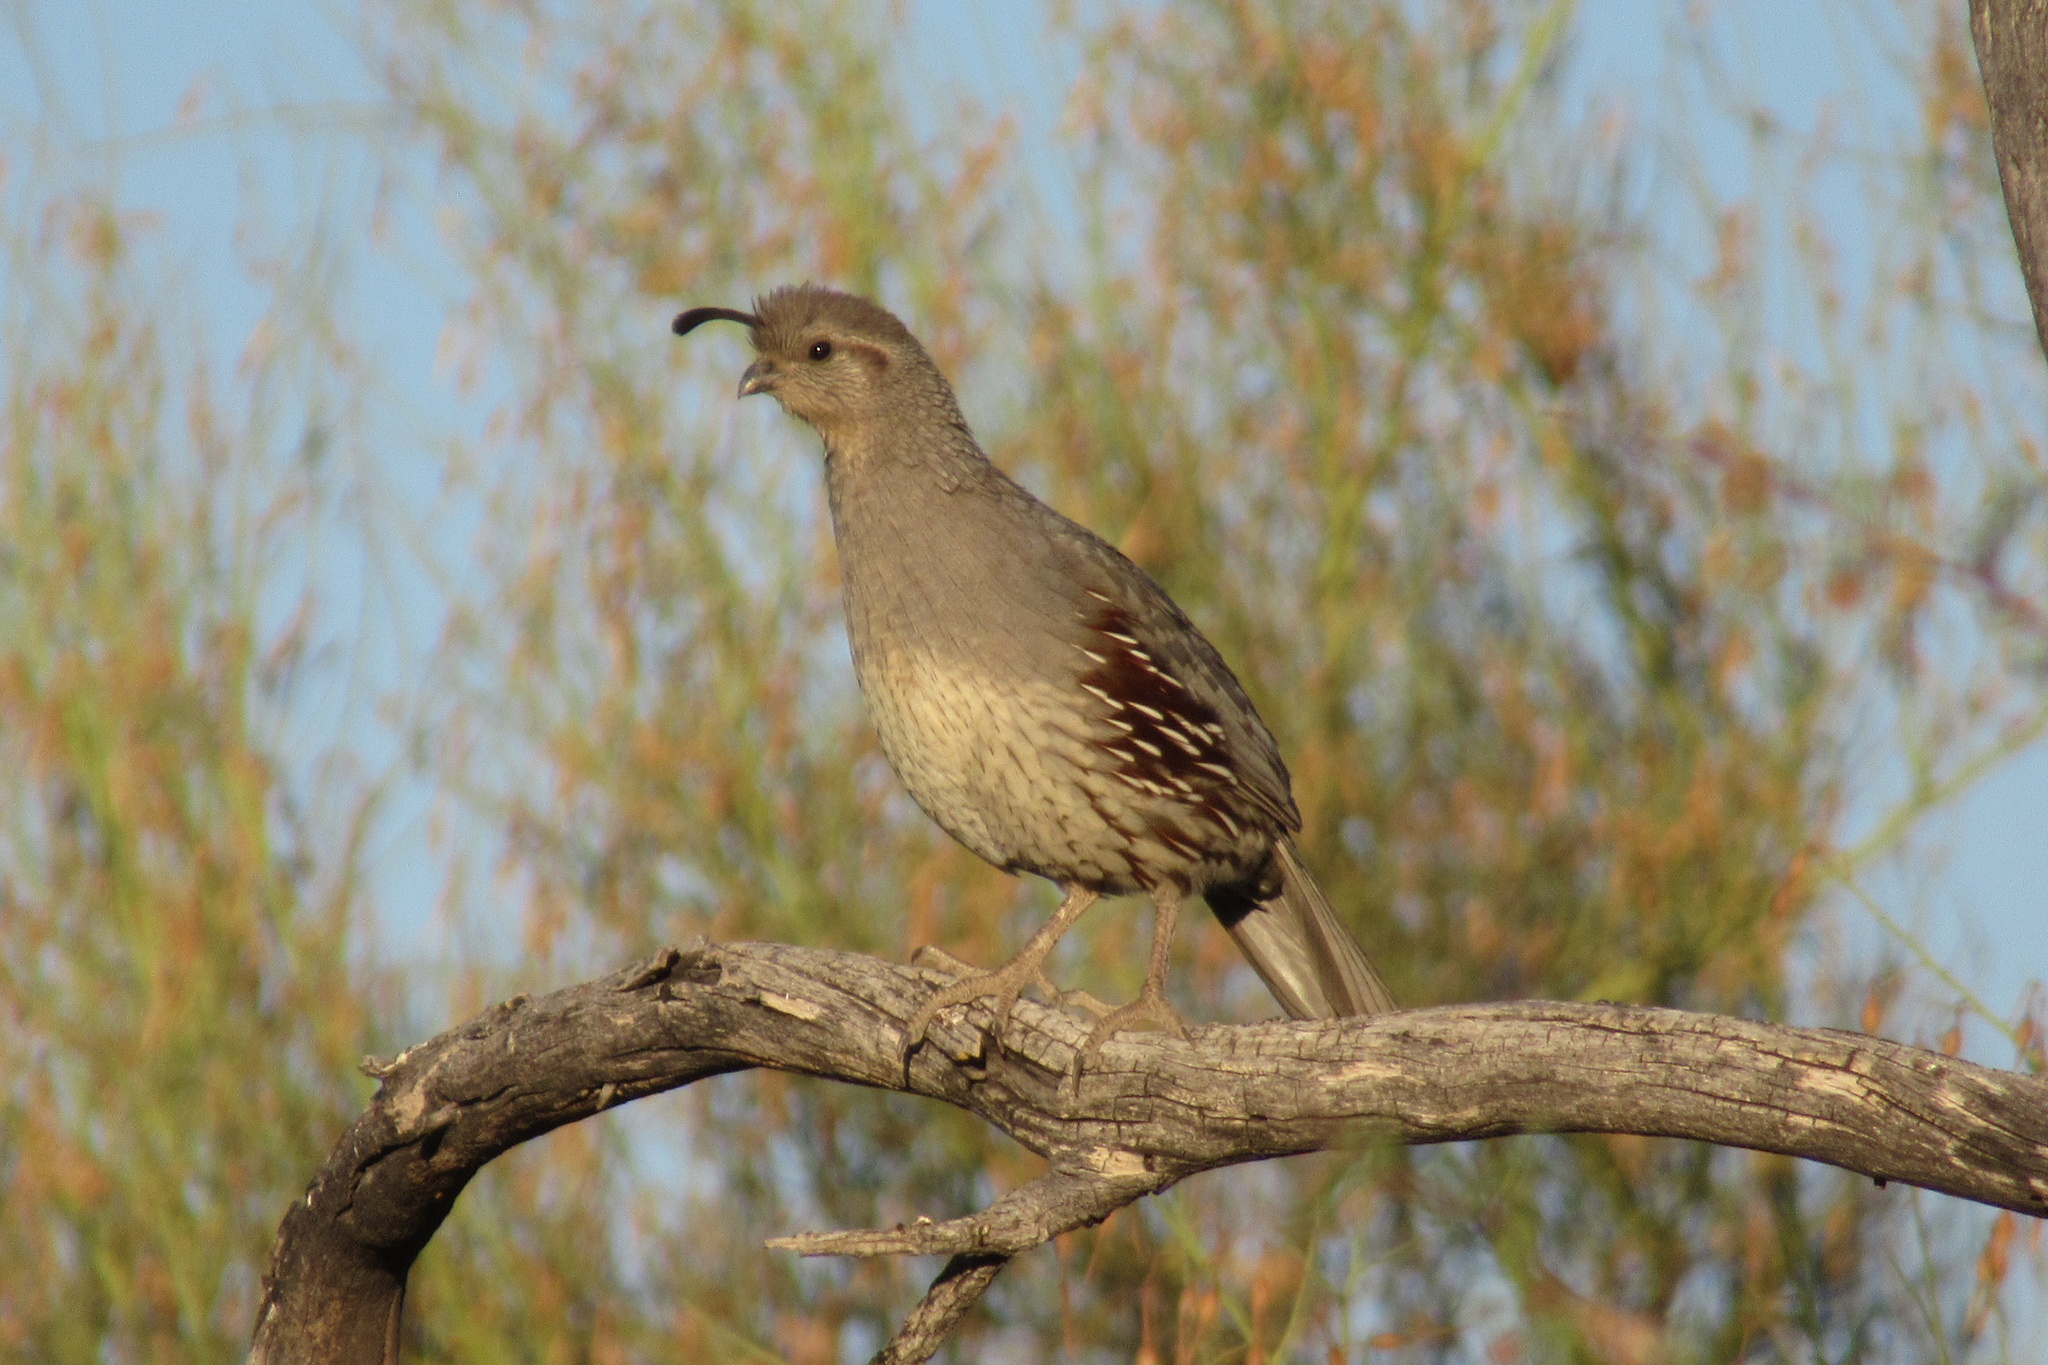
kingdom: Animalia
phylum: Chordata
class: Aves
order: Galliformes
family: Odontophoridae
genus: Callipepla
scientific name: Callipepla gambelii
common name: Gambel's quail
